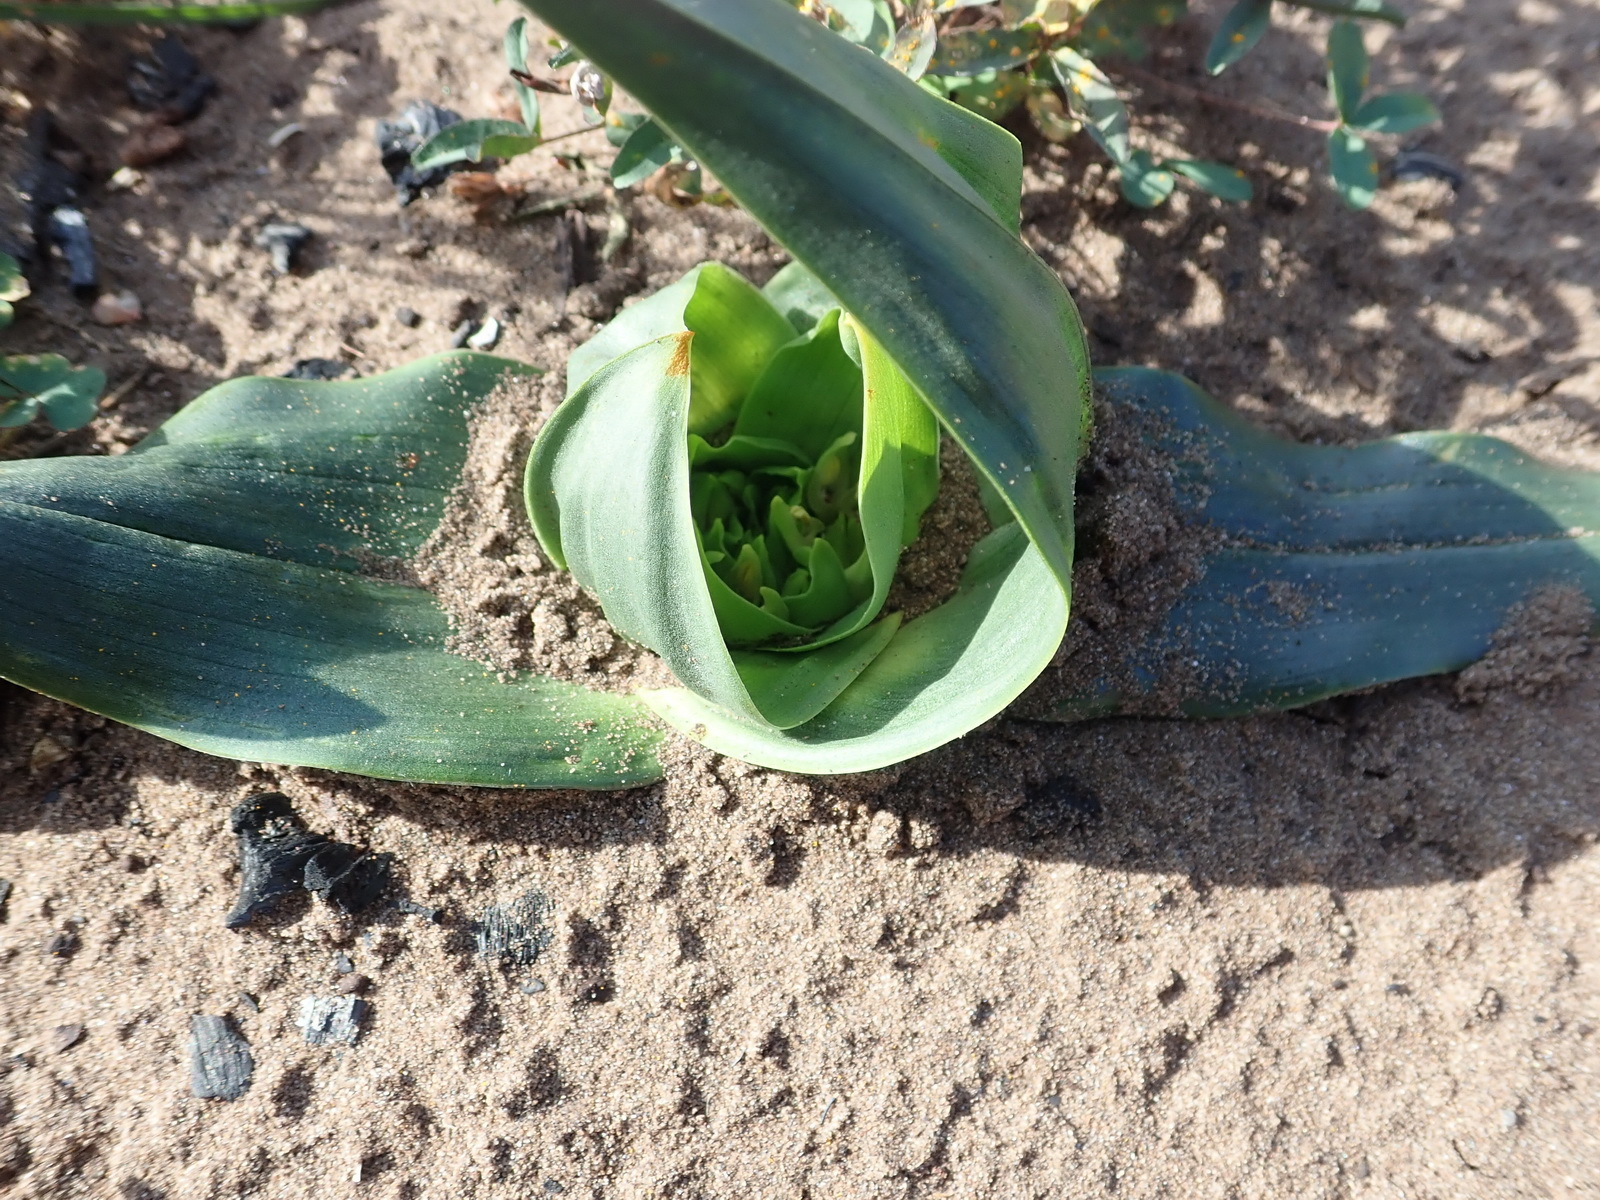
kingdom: Plantae
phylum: Tracheophyta
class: Liliopsida
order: Liliales
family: Colchicaceae
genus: Colchicum
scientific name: Colchicum eucomoides
